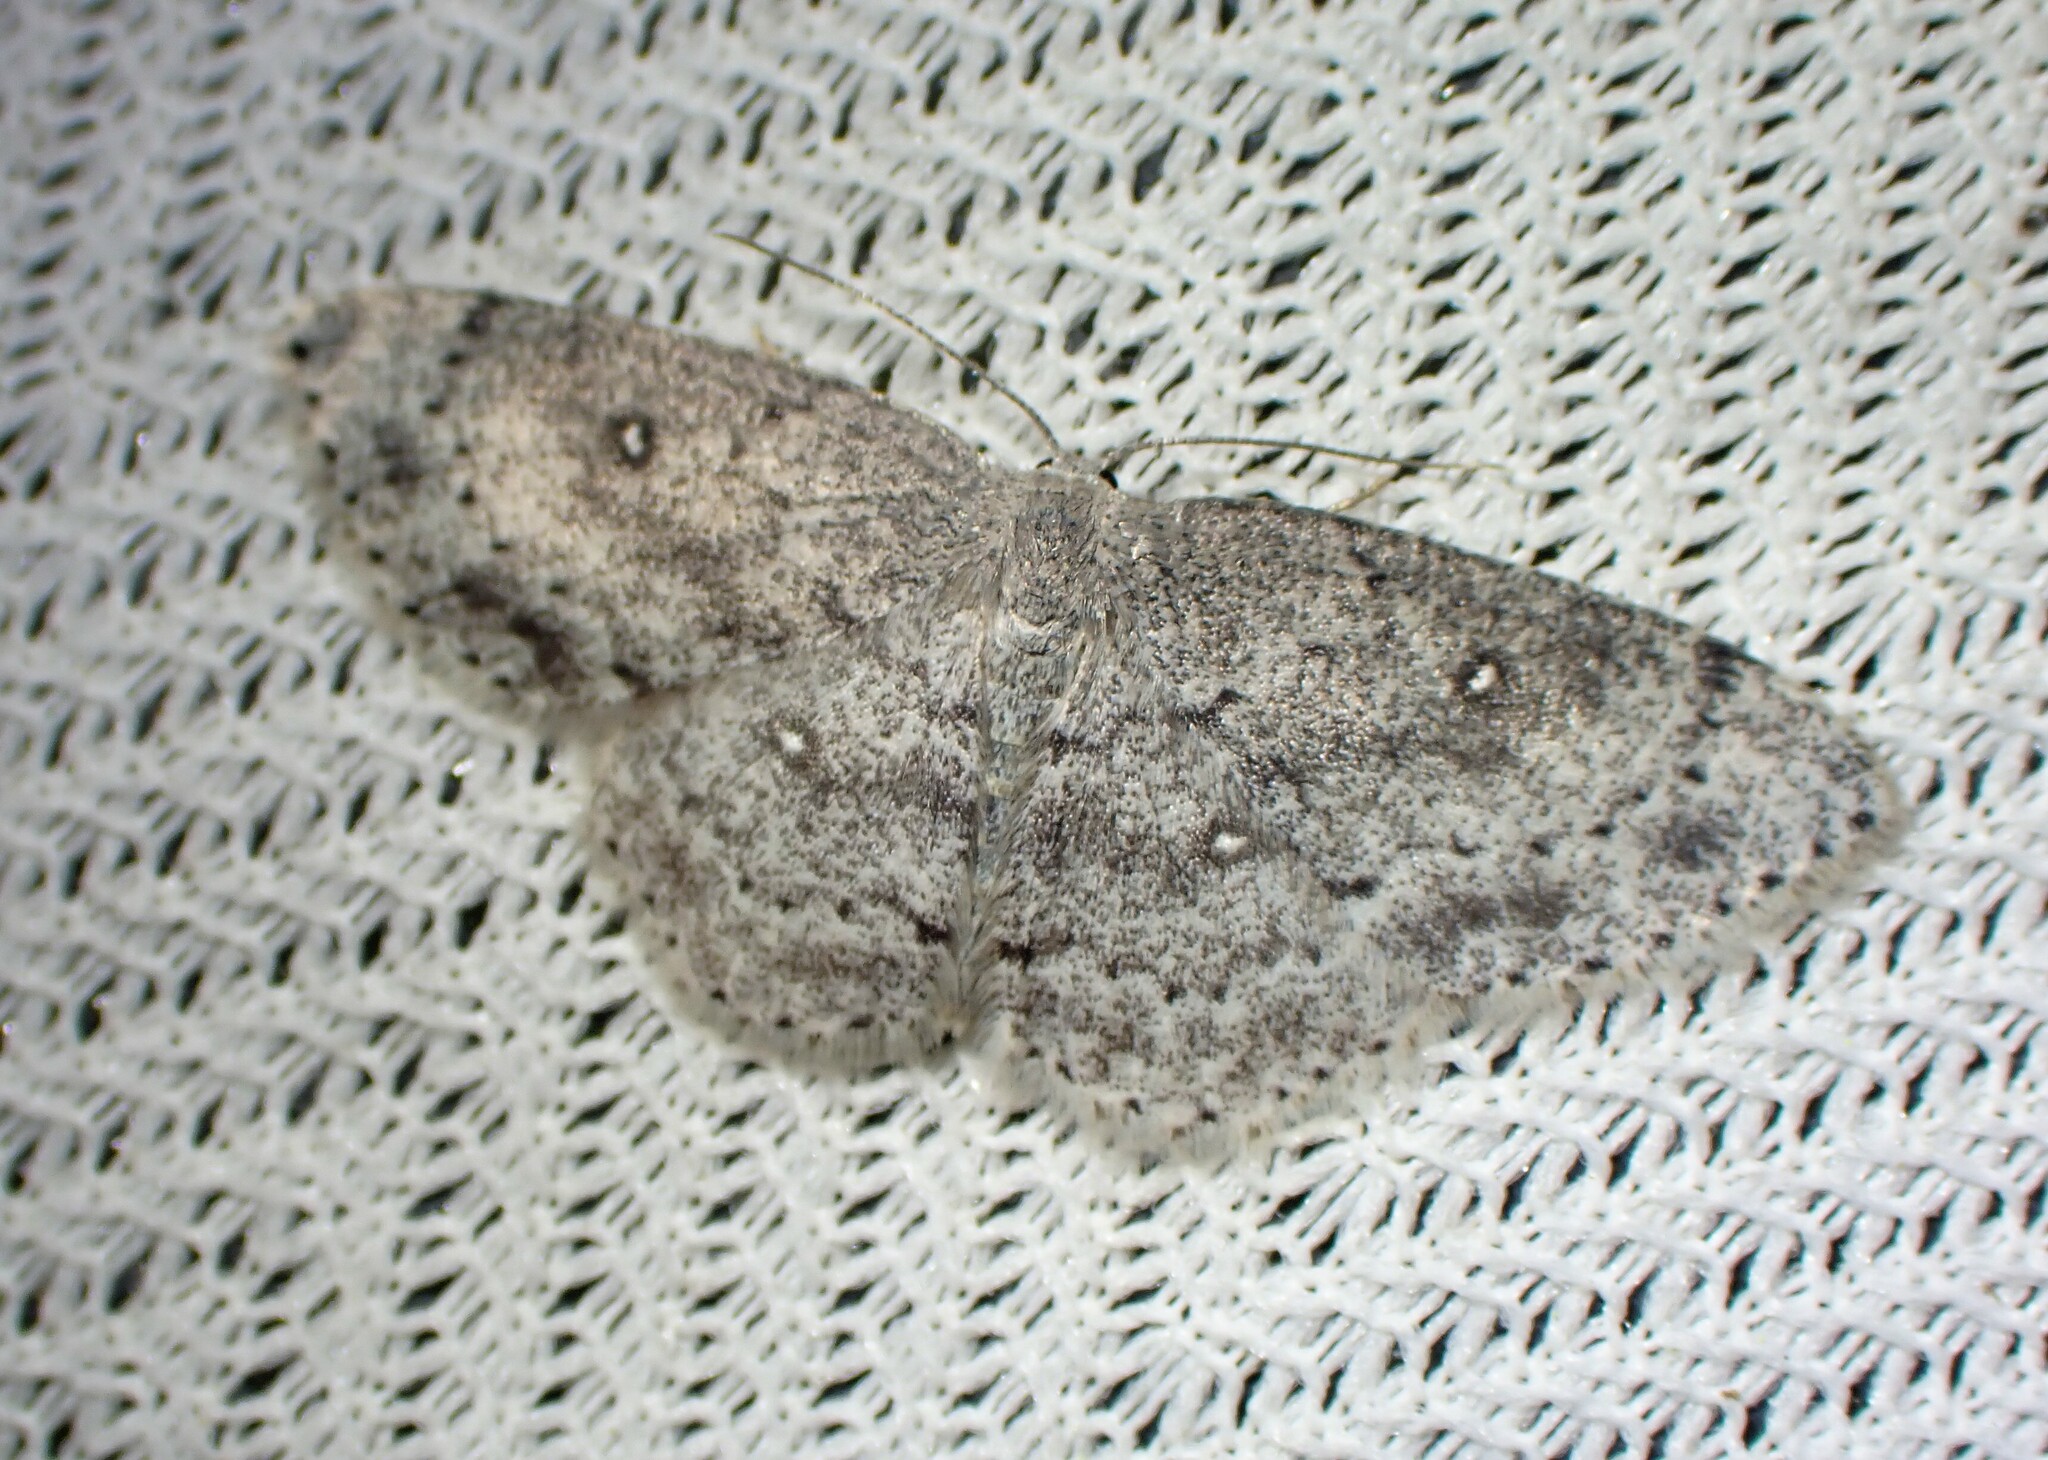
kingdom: Animalia
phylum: Arthropoda
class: Insecta
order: Lepidoptera
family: Geometridae
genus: Cyclophora
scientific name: Cyclophora pendulinaria
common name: Sweet fern geometer
